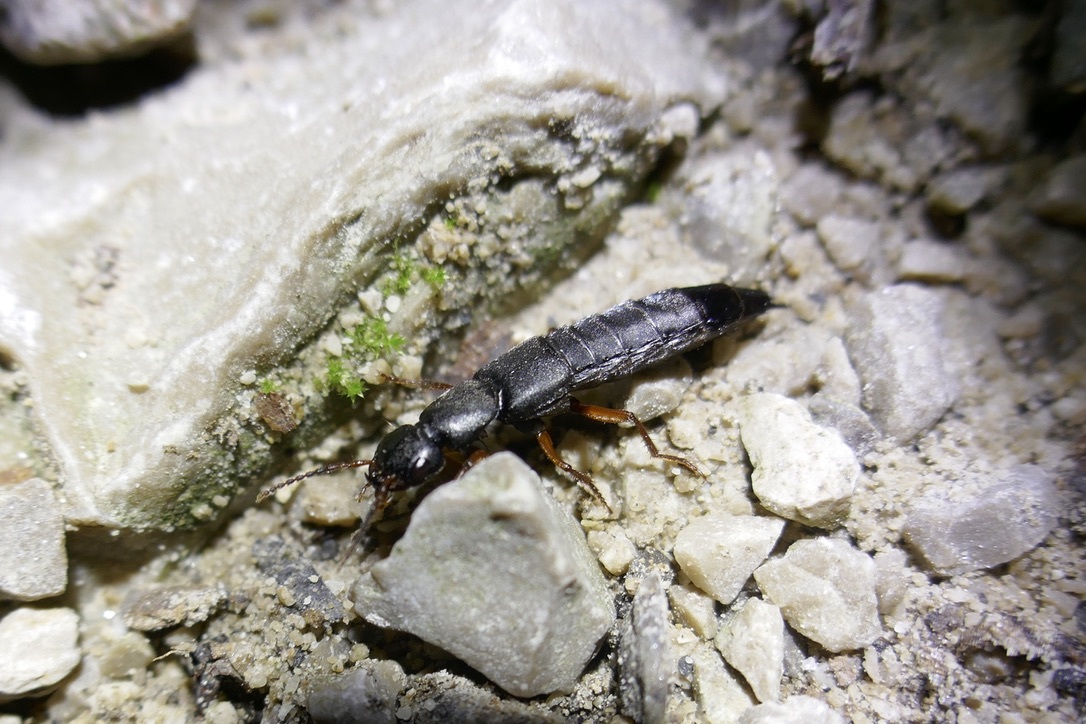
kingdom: Animalia
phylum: Arthropoda
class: Insecta
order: Coleoptera
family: Staphylinidae
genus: Tasgius
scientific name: Tasgius morsitans
